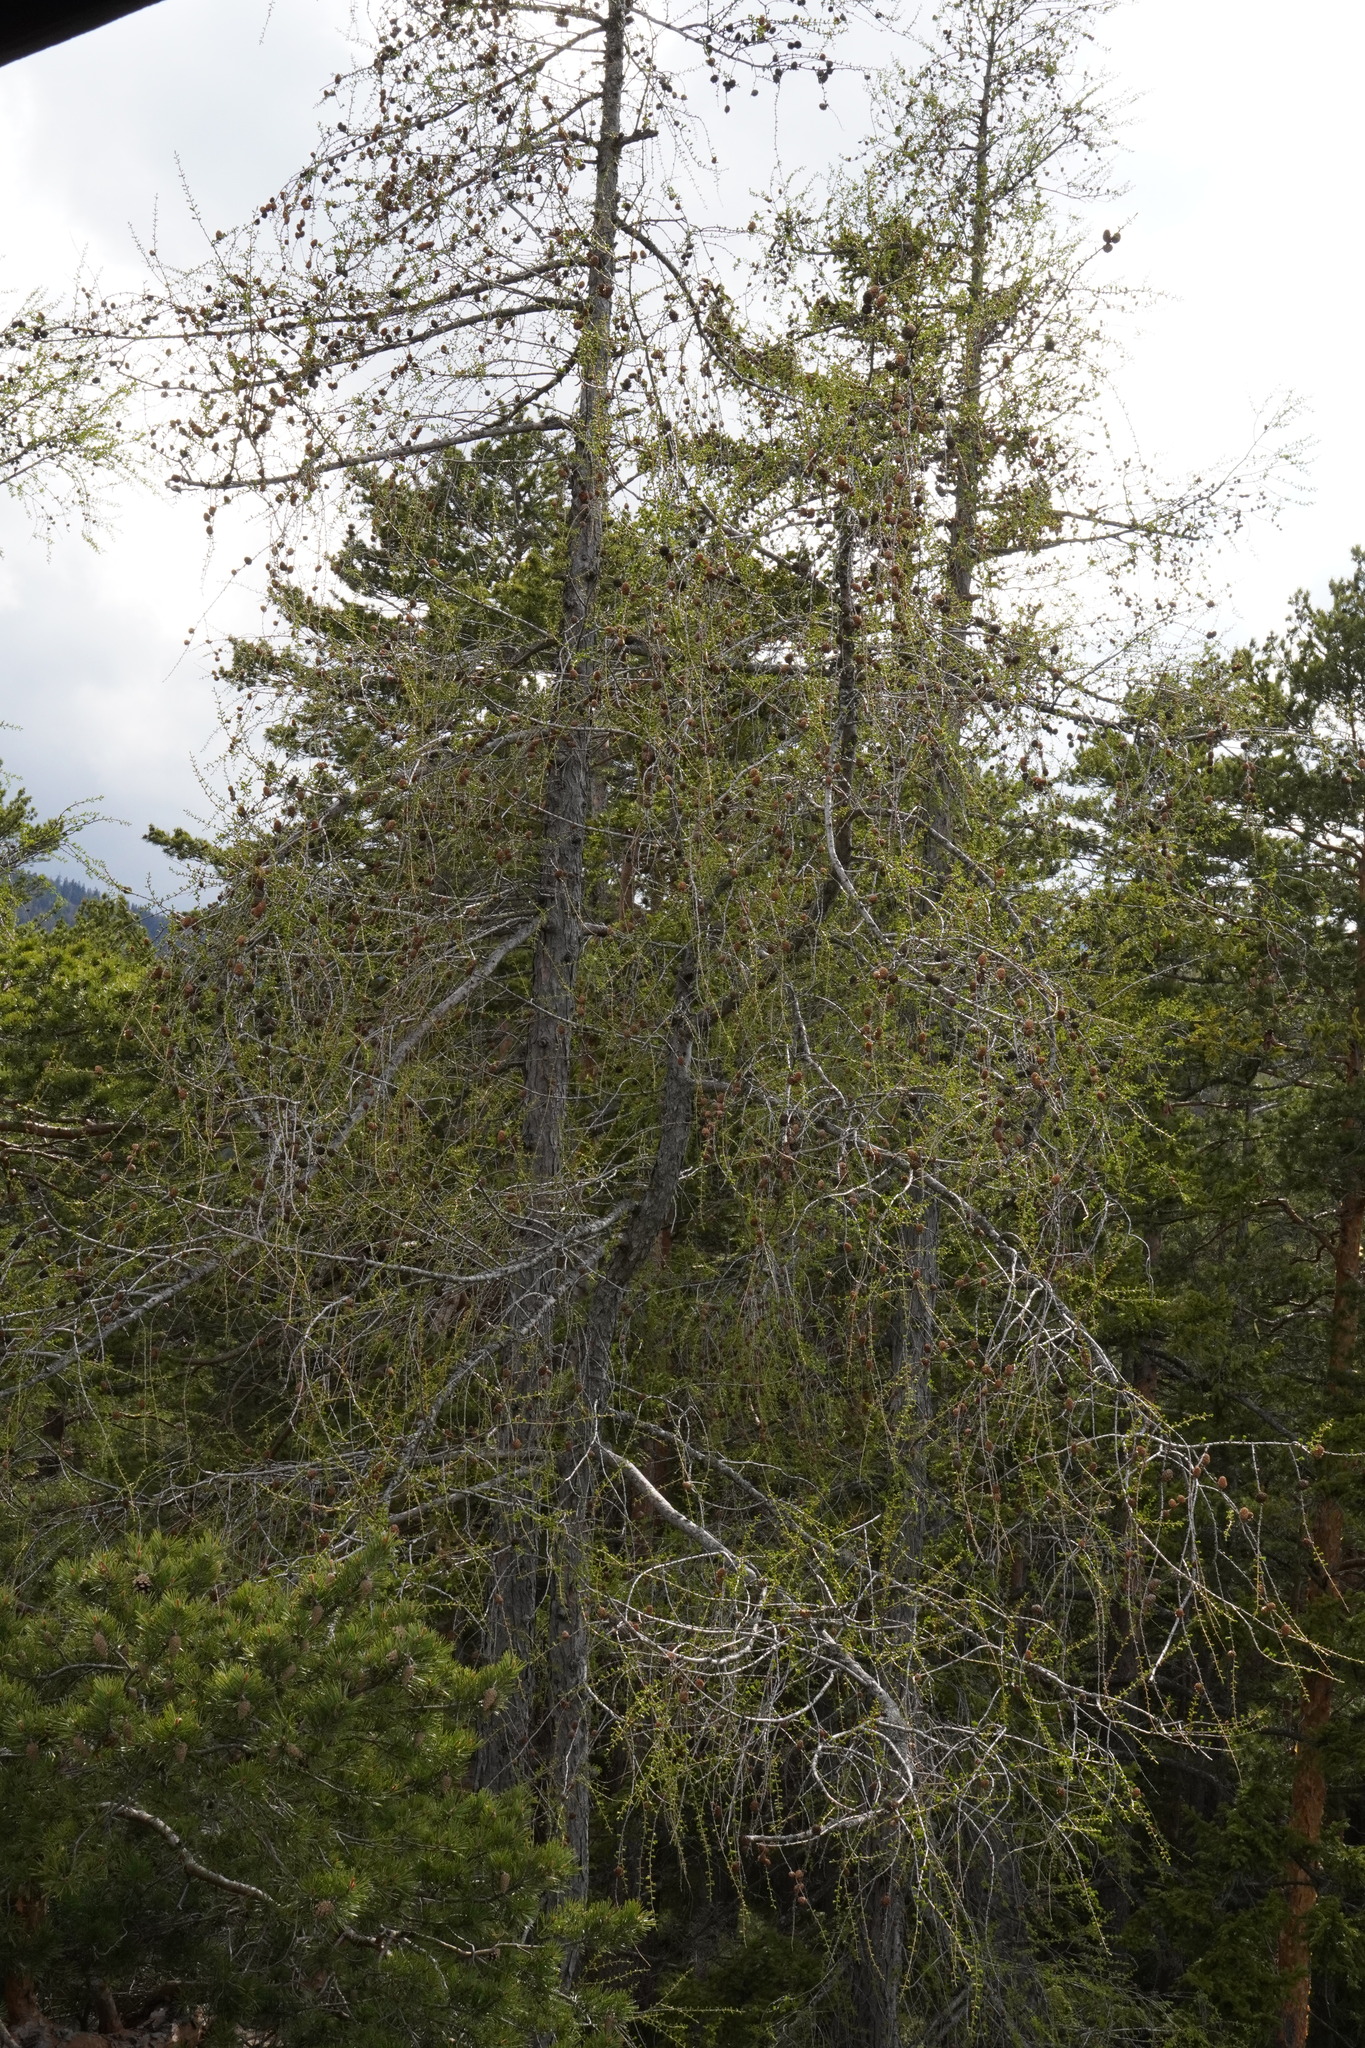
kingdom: Plantae
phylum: Tracheophyta
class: Pinopsida
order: Pinales
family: Pinaceae
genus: Larix
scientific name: Larix decidua
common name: European larch
